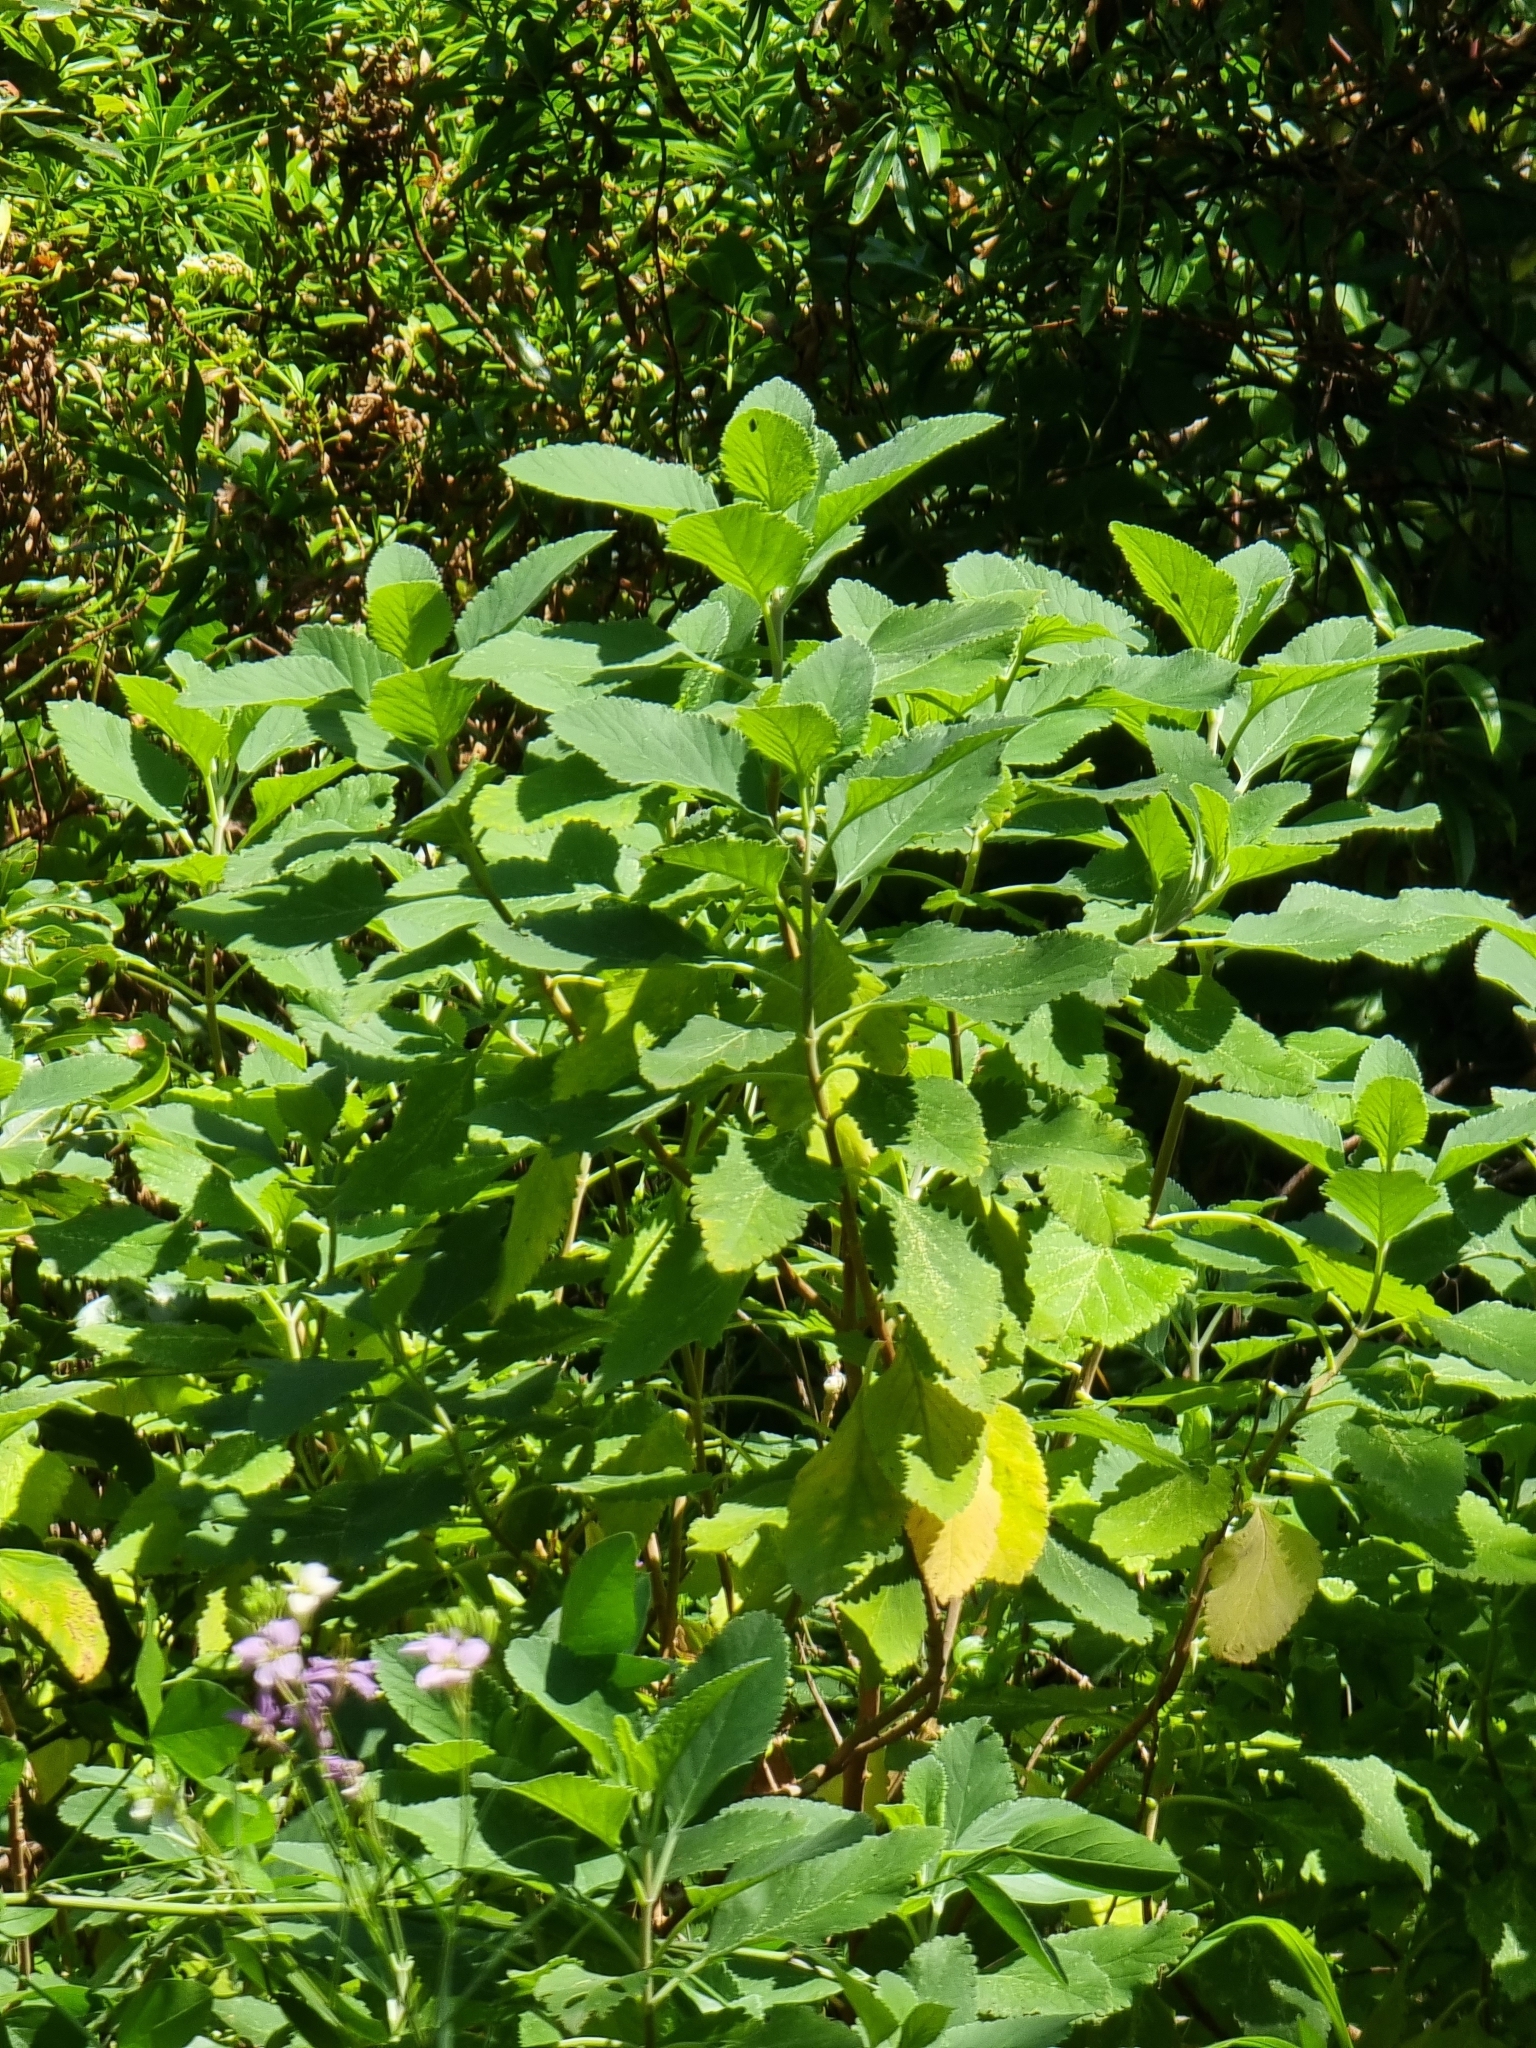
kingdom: Plantae
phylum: Tracheophyta
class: Magnoliopsida
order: Lamiales
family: Lamiaceae
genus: Teucrium
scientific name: Teucrium betonicum
